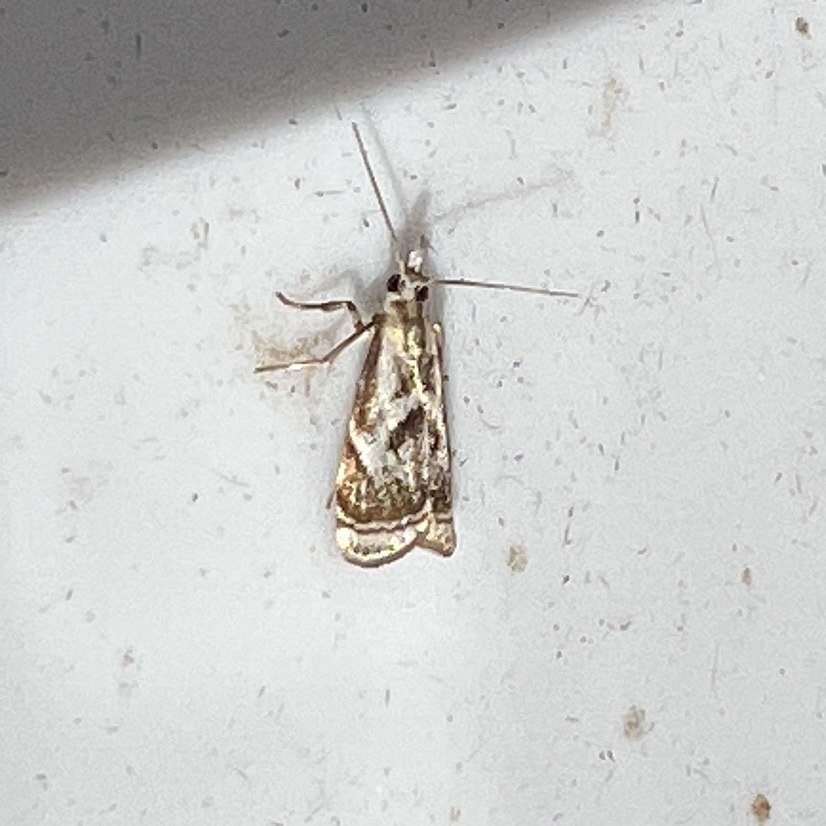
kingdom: Animalia
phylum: Arthropoda
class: Insecta
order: Lepidoptera
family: Crambidae
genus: Microcrambus
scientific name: Microcrambus elegans
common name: Elegant grass-veneer
